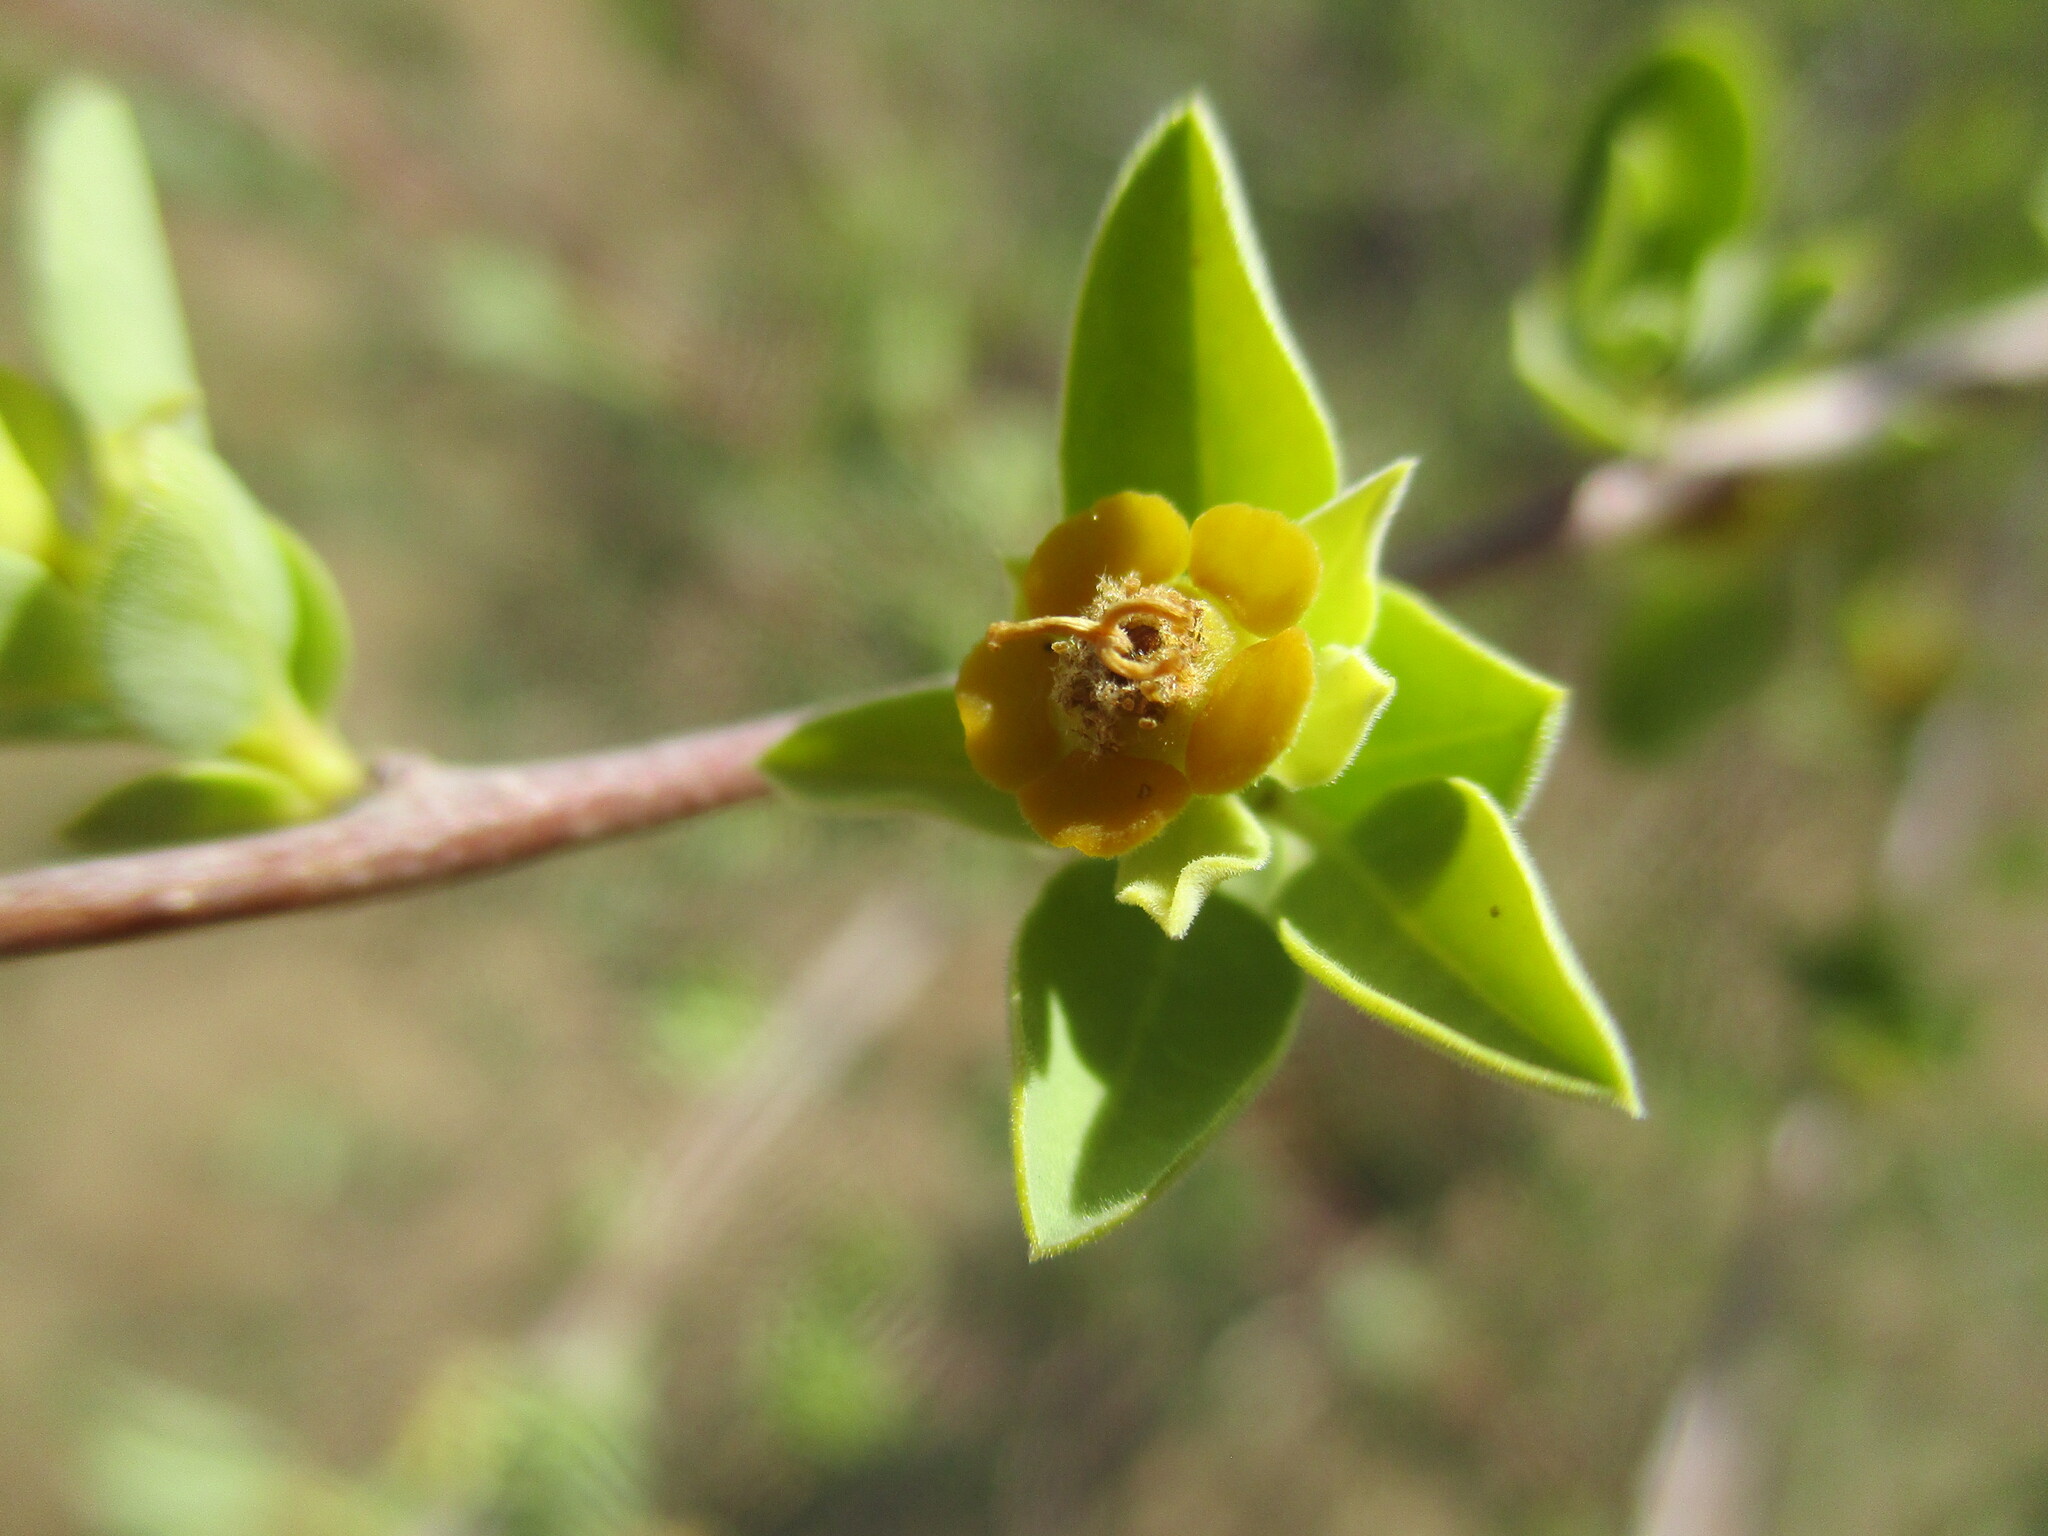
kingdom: Plantae
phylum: Tracheophyta
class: Magnoliopsida
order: Malpighiales
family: Euphorbiaceae
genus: Euphorbia
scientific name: Euphorbia guerichiana
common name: Paper-barked milkbush
